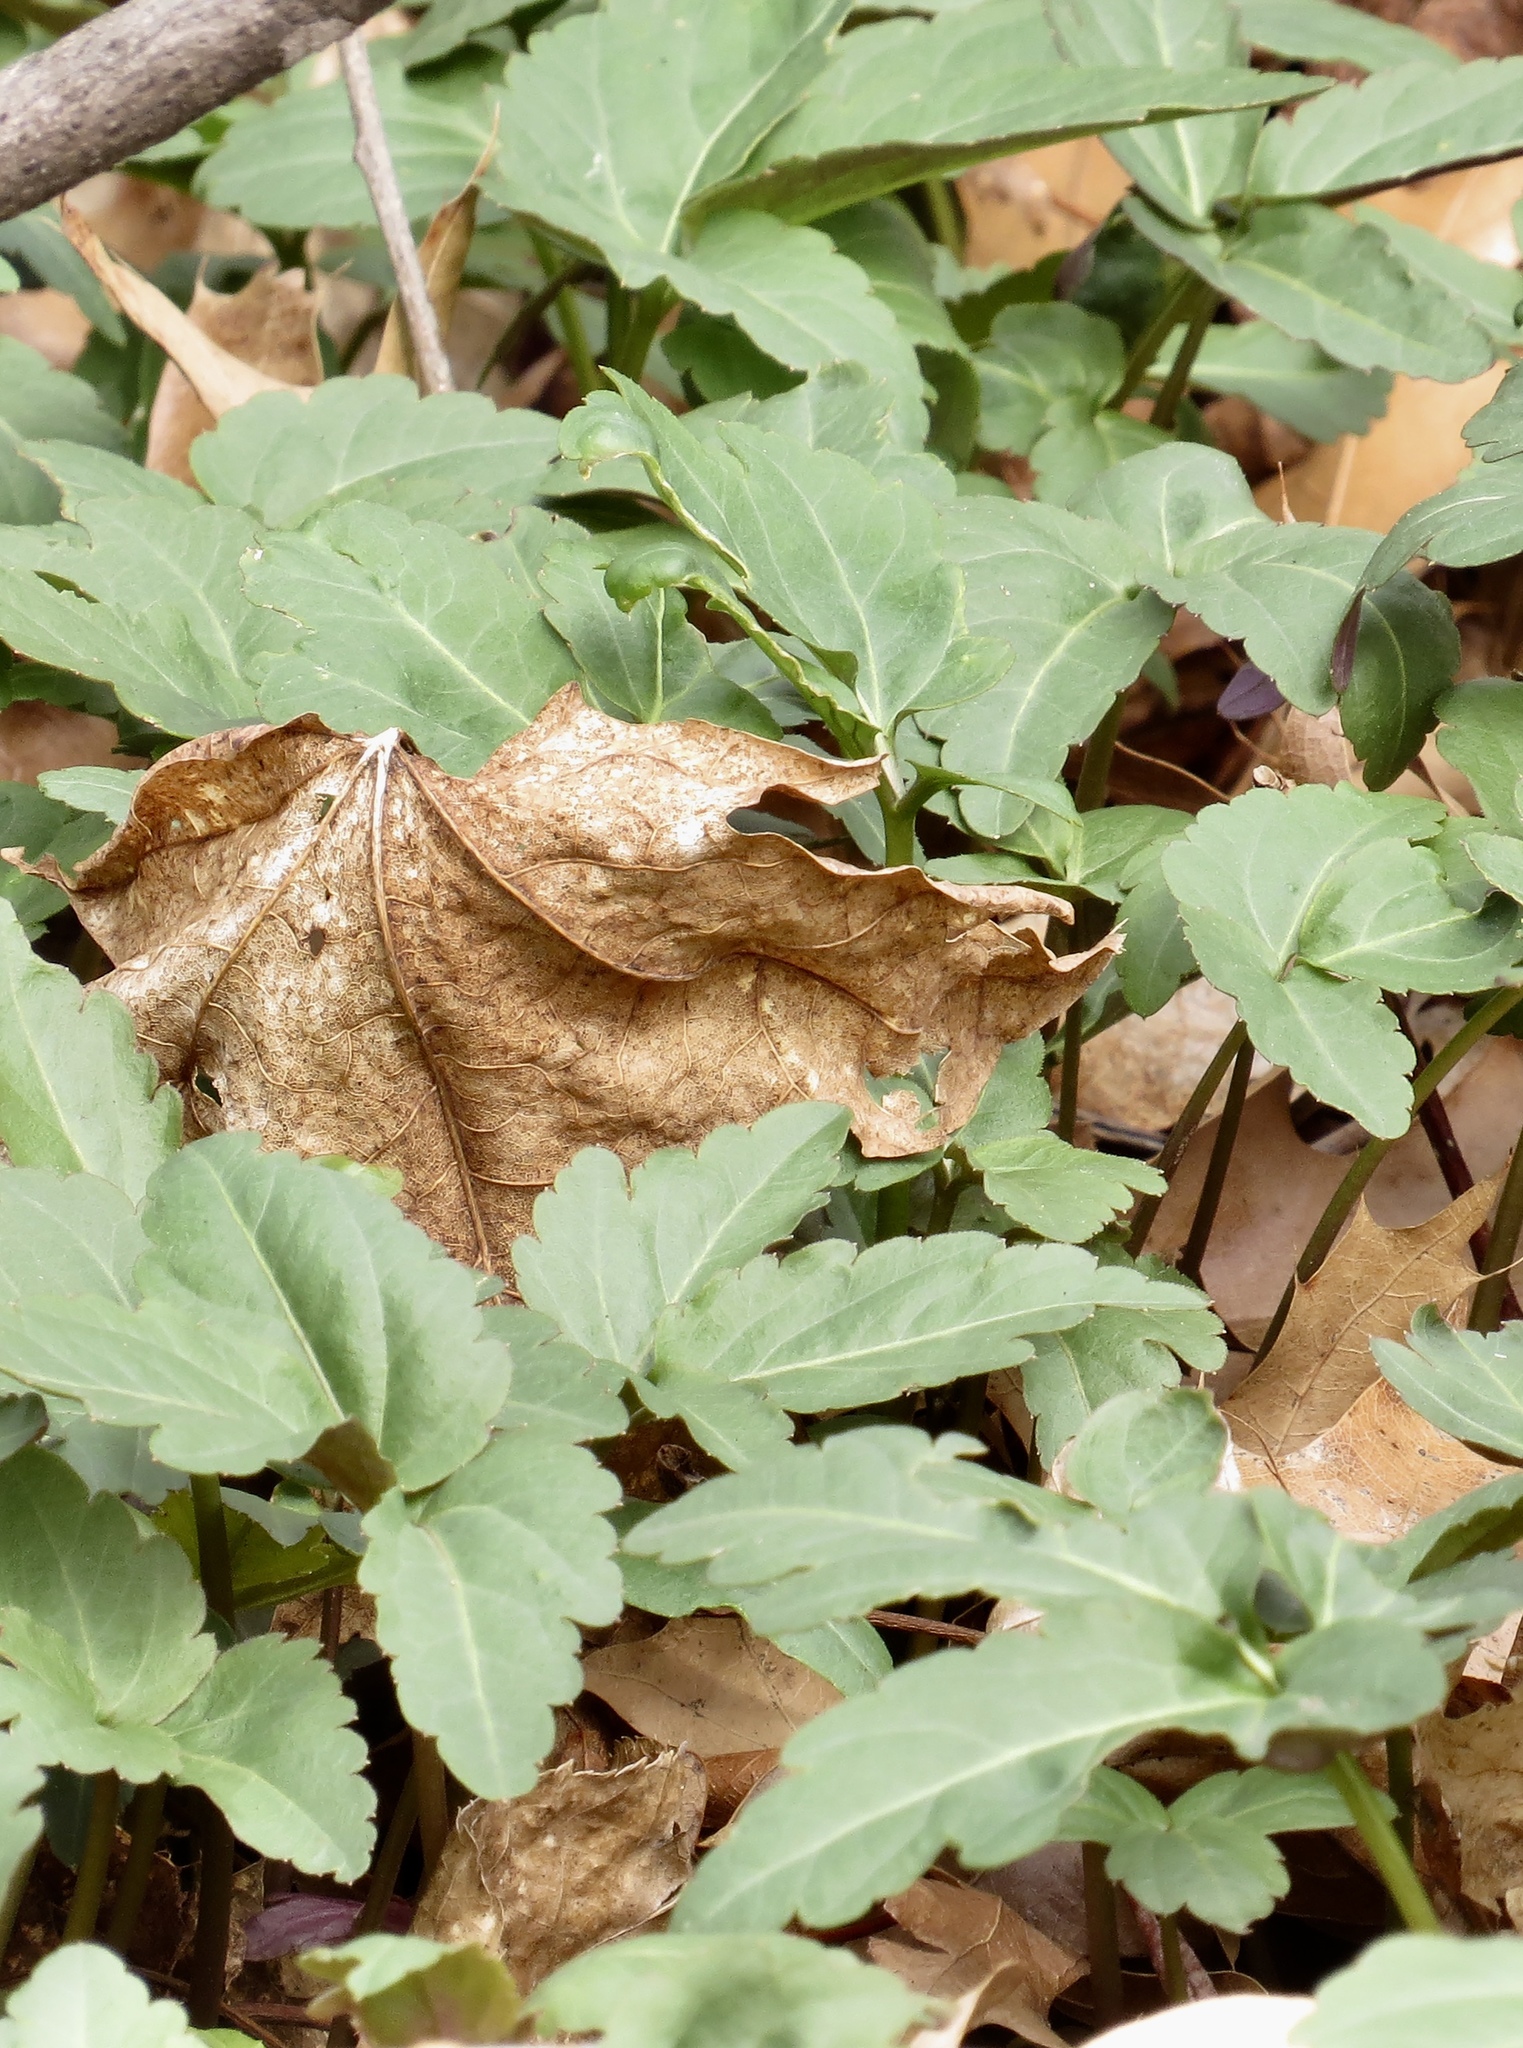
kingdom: Plantae
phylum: Tracheophyta
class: Magnoliopsida
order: Brassicales
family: Brassicaceae
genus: Cardamine
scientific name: Cardamine diphylla
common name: Broad-leaved toothwort
